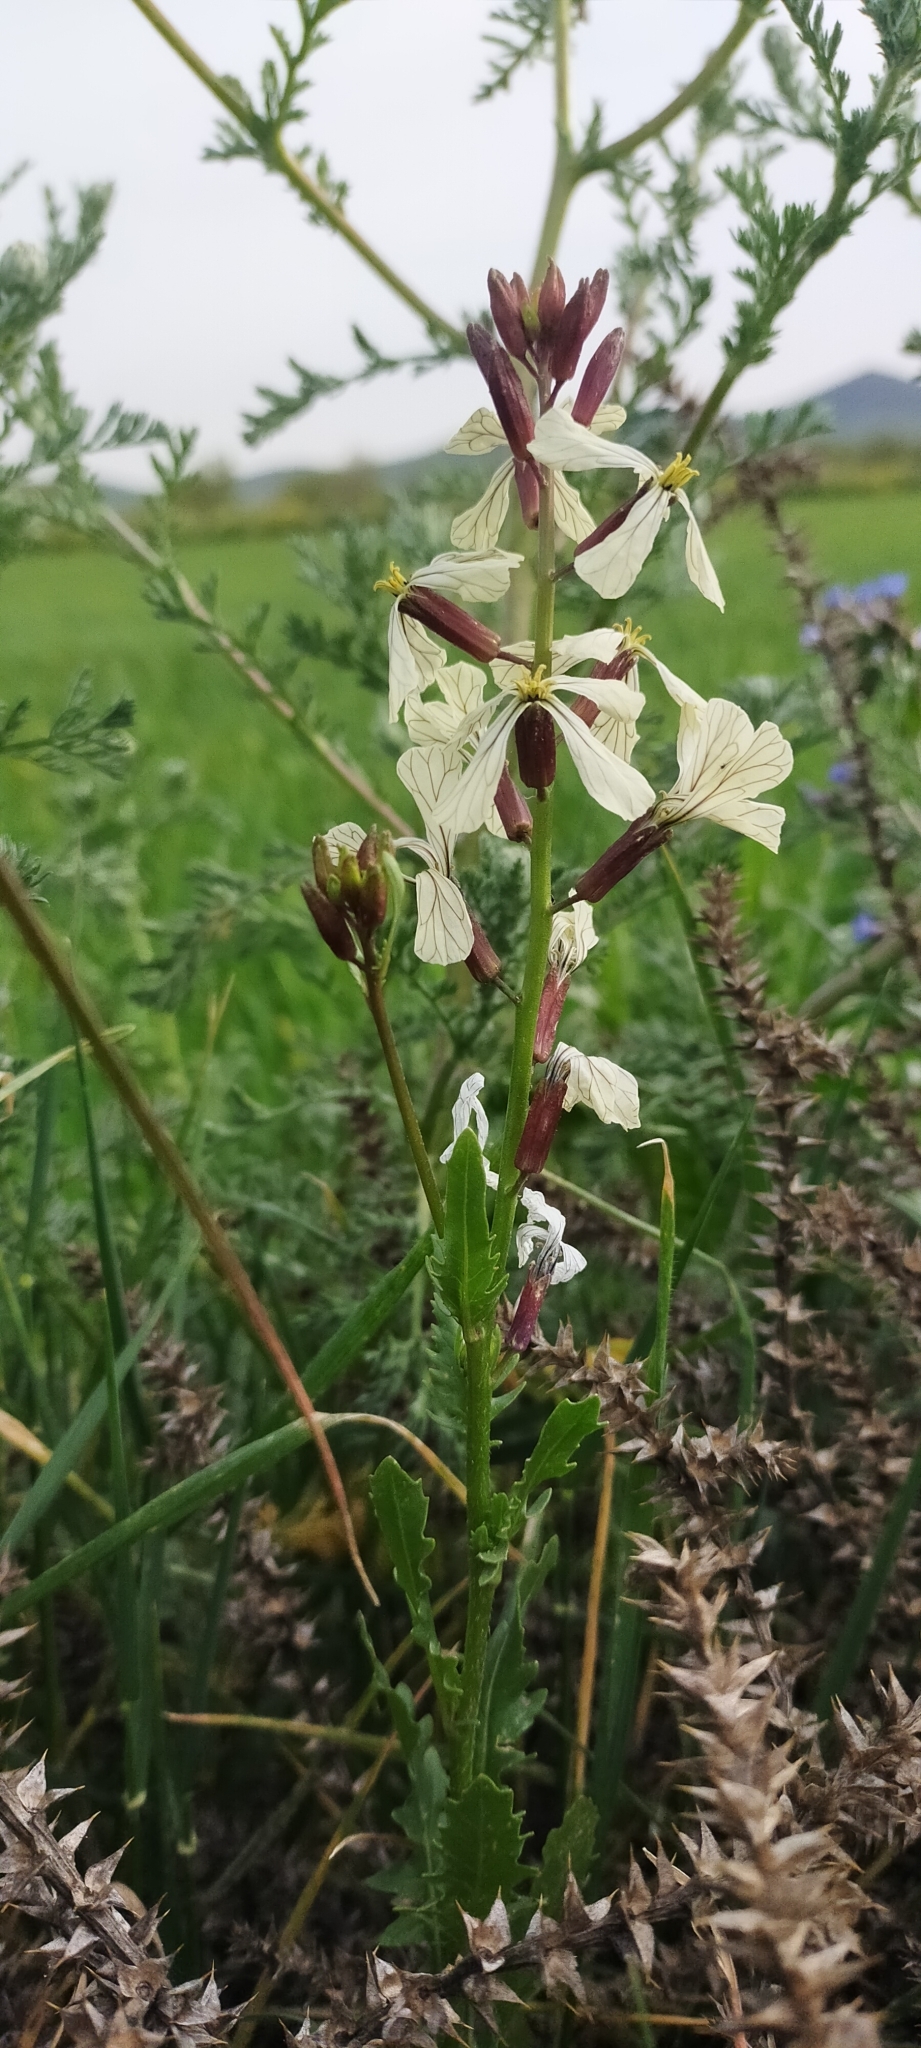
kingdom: Plantae
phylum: Tracheophyta
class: Magnoliopsida
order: Brassicales
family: Brassicaceae
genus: Eruca
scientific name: Eruca vesicaria
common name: Garden rocket
